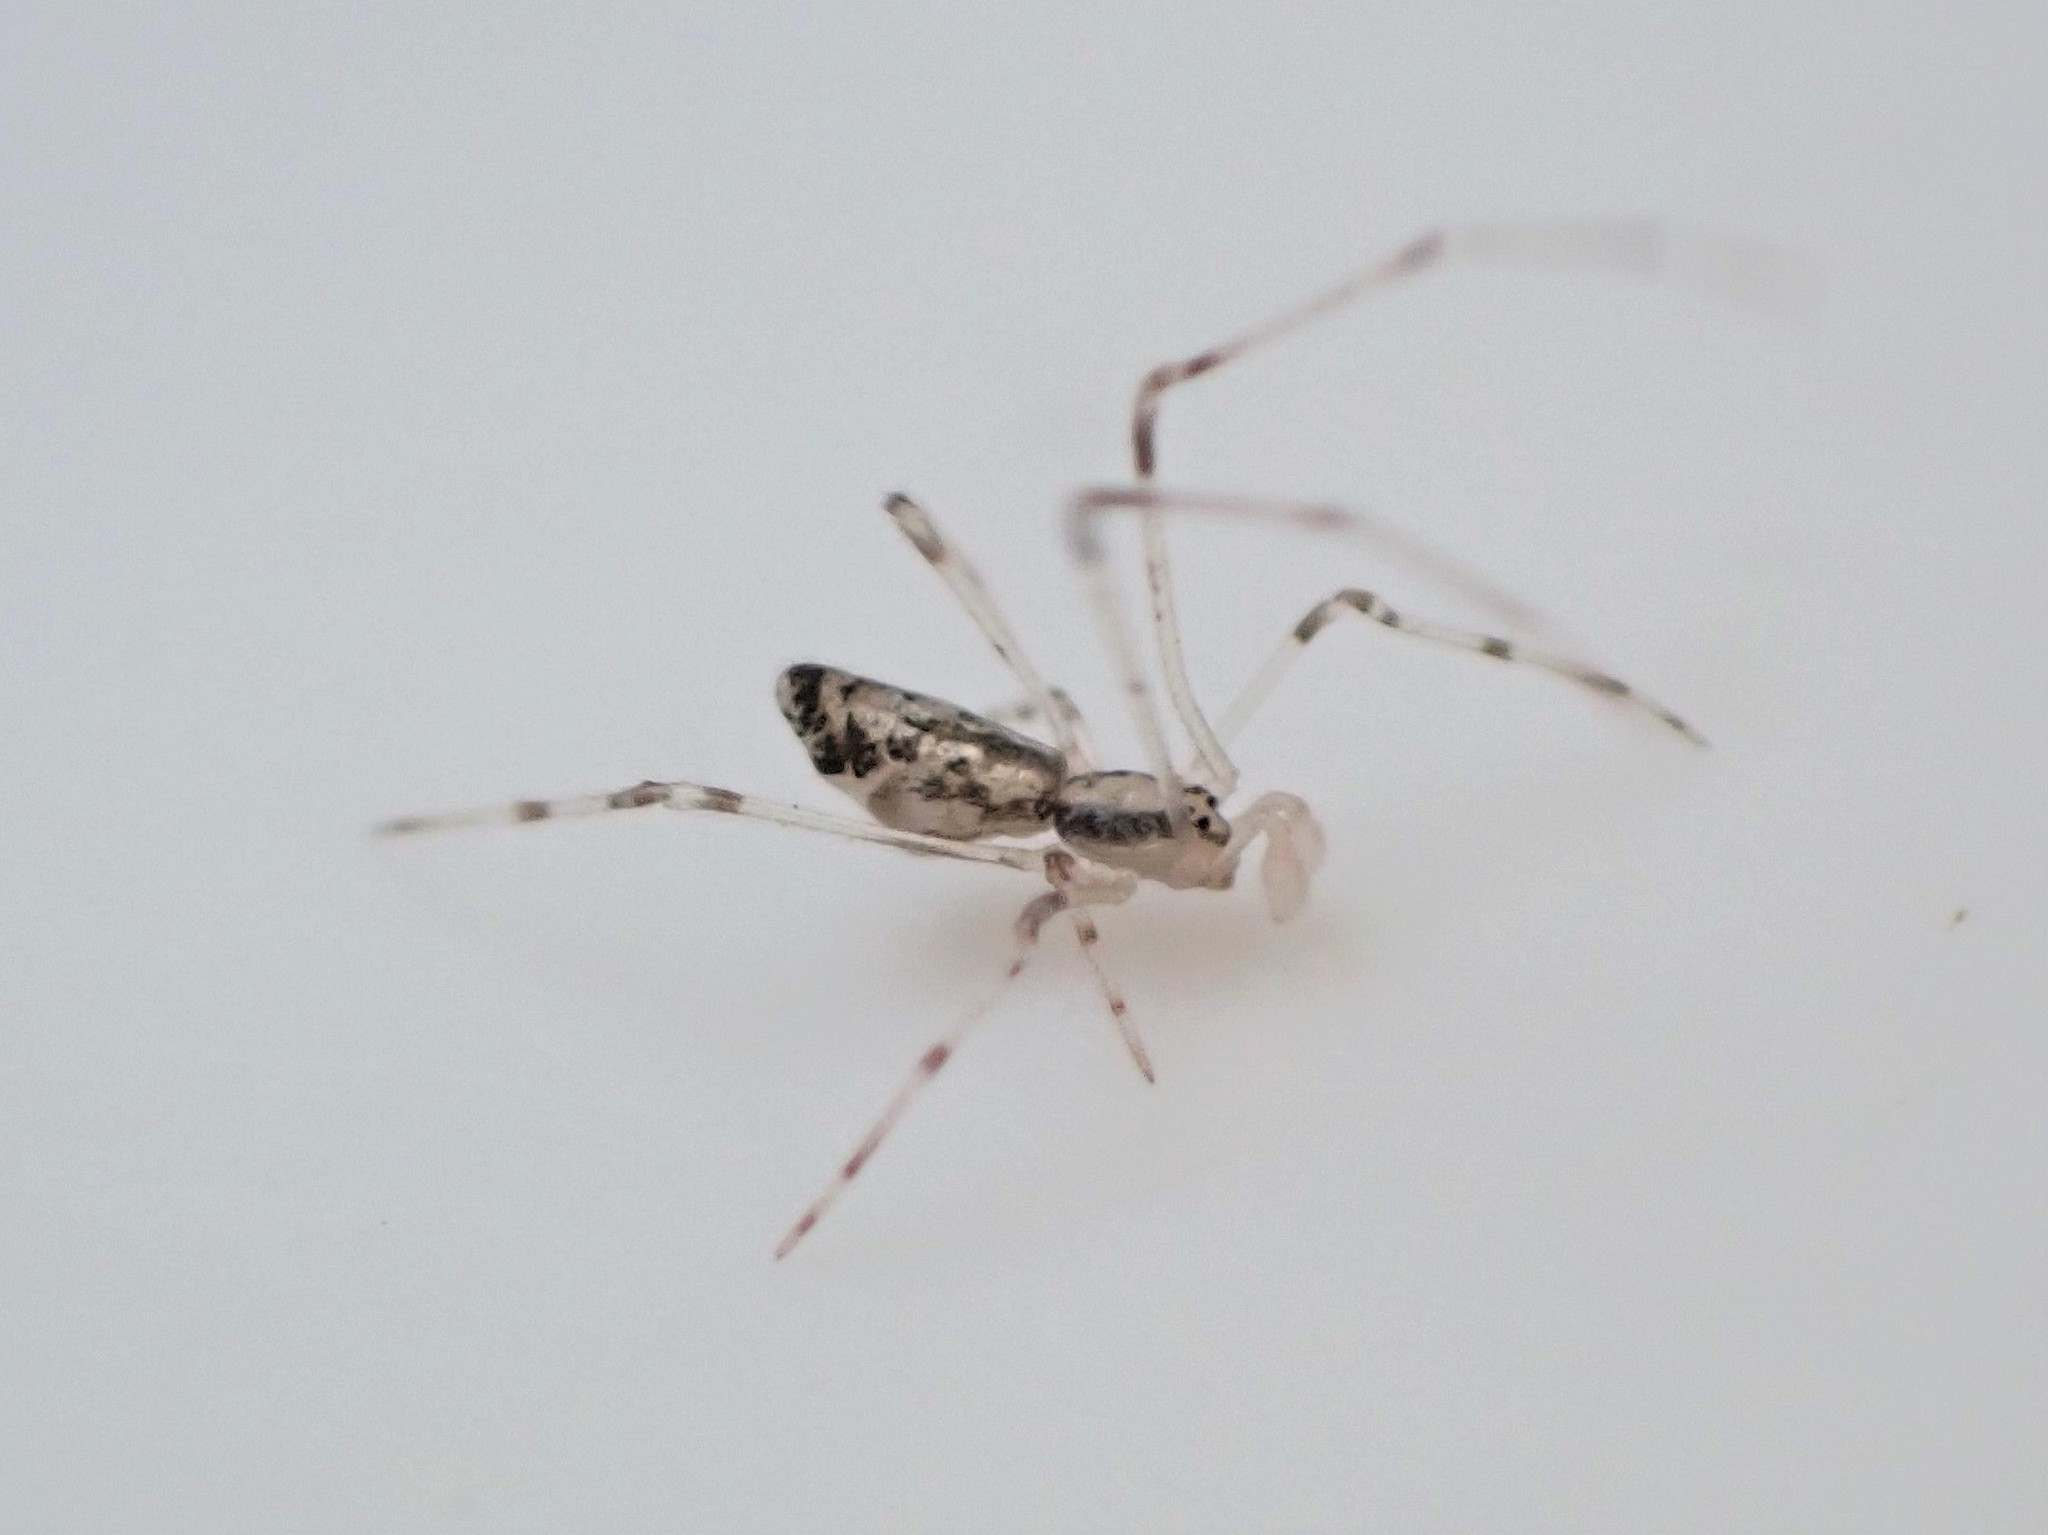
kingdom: Animalia
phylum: Arthropoda
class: Arachnida
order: Araneae
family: Theridiidae
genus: Rhomphaea
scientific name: Rhomphaea urquharti
